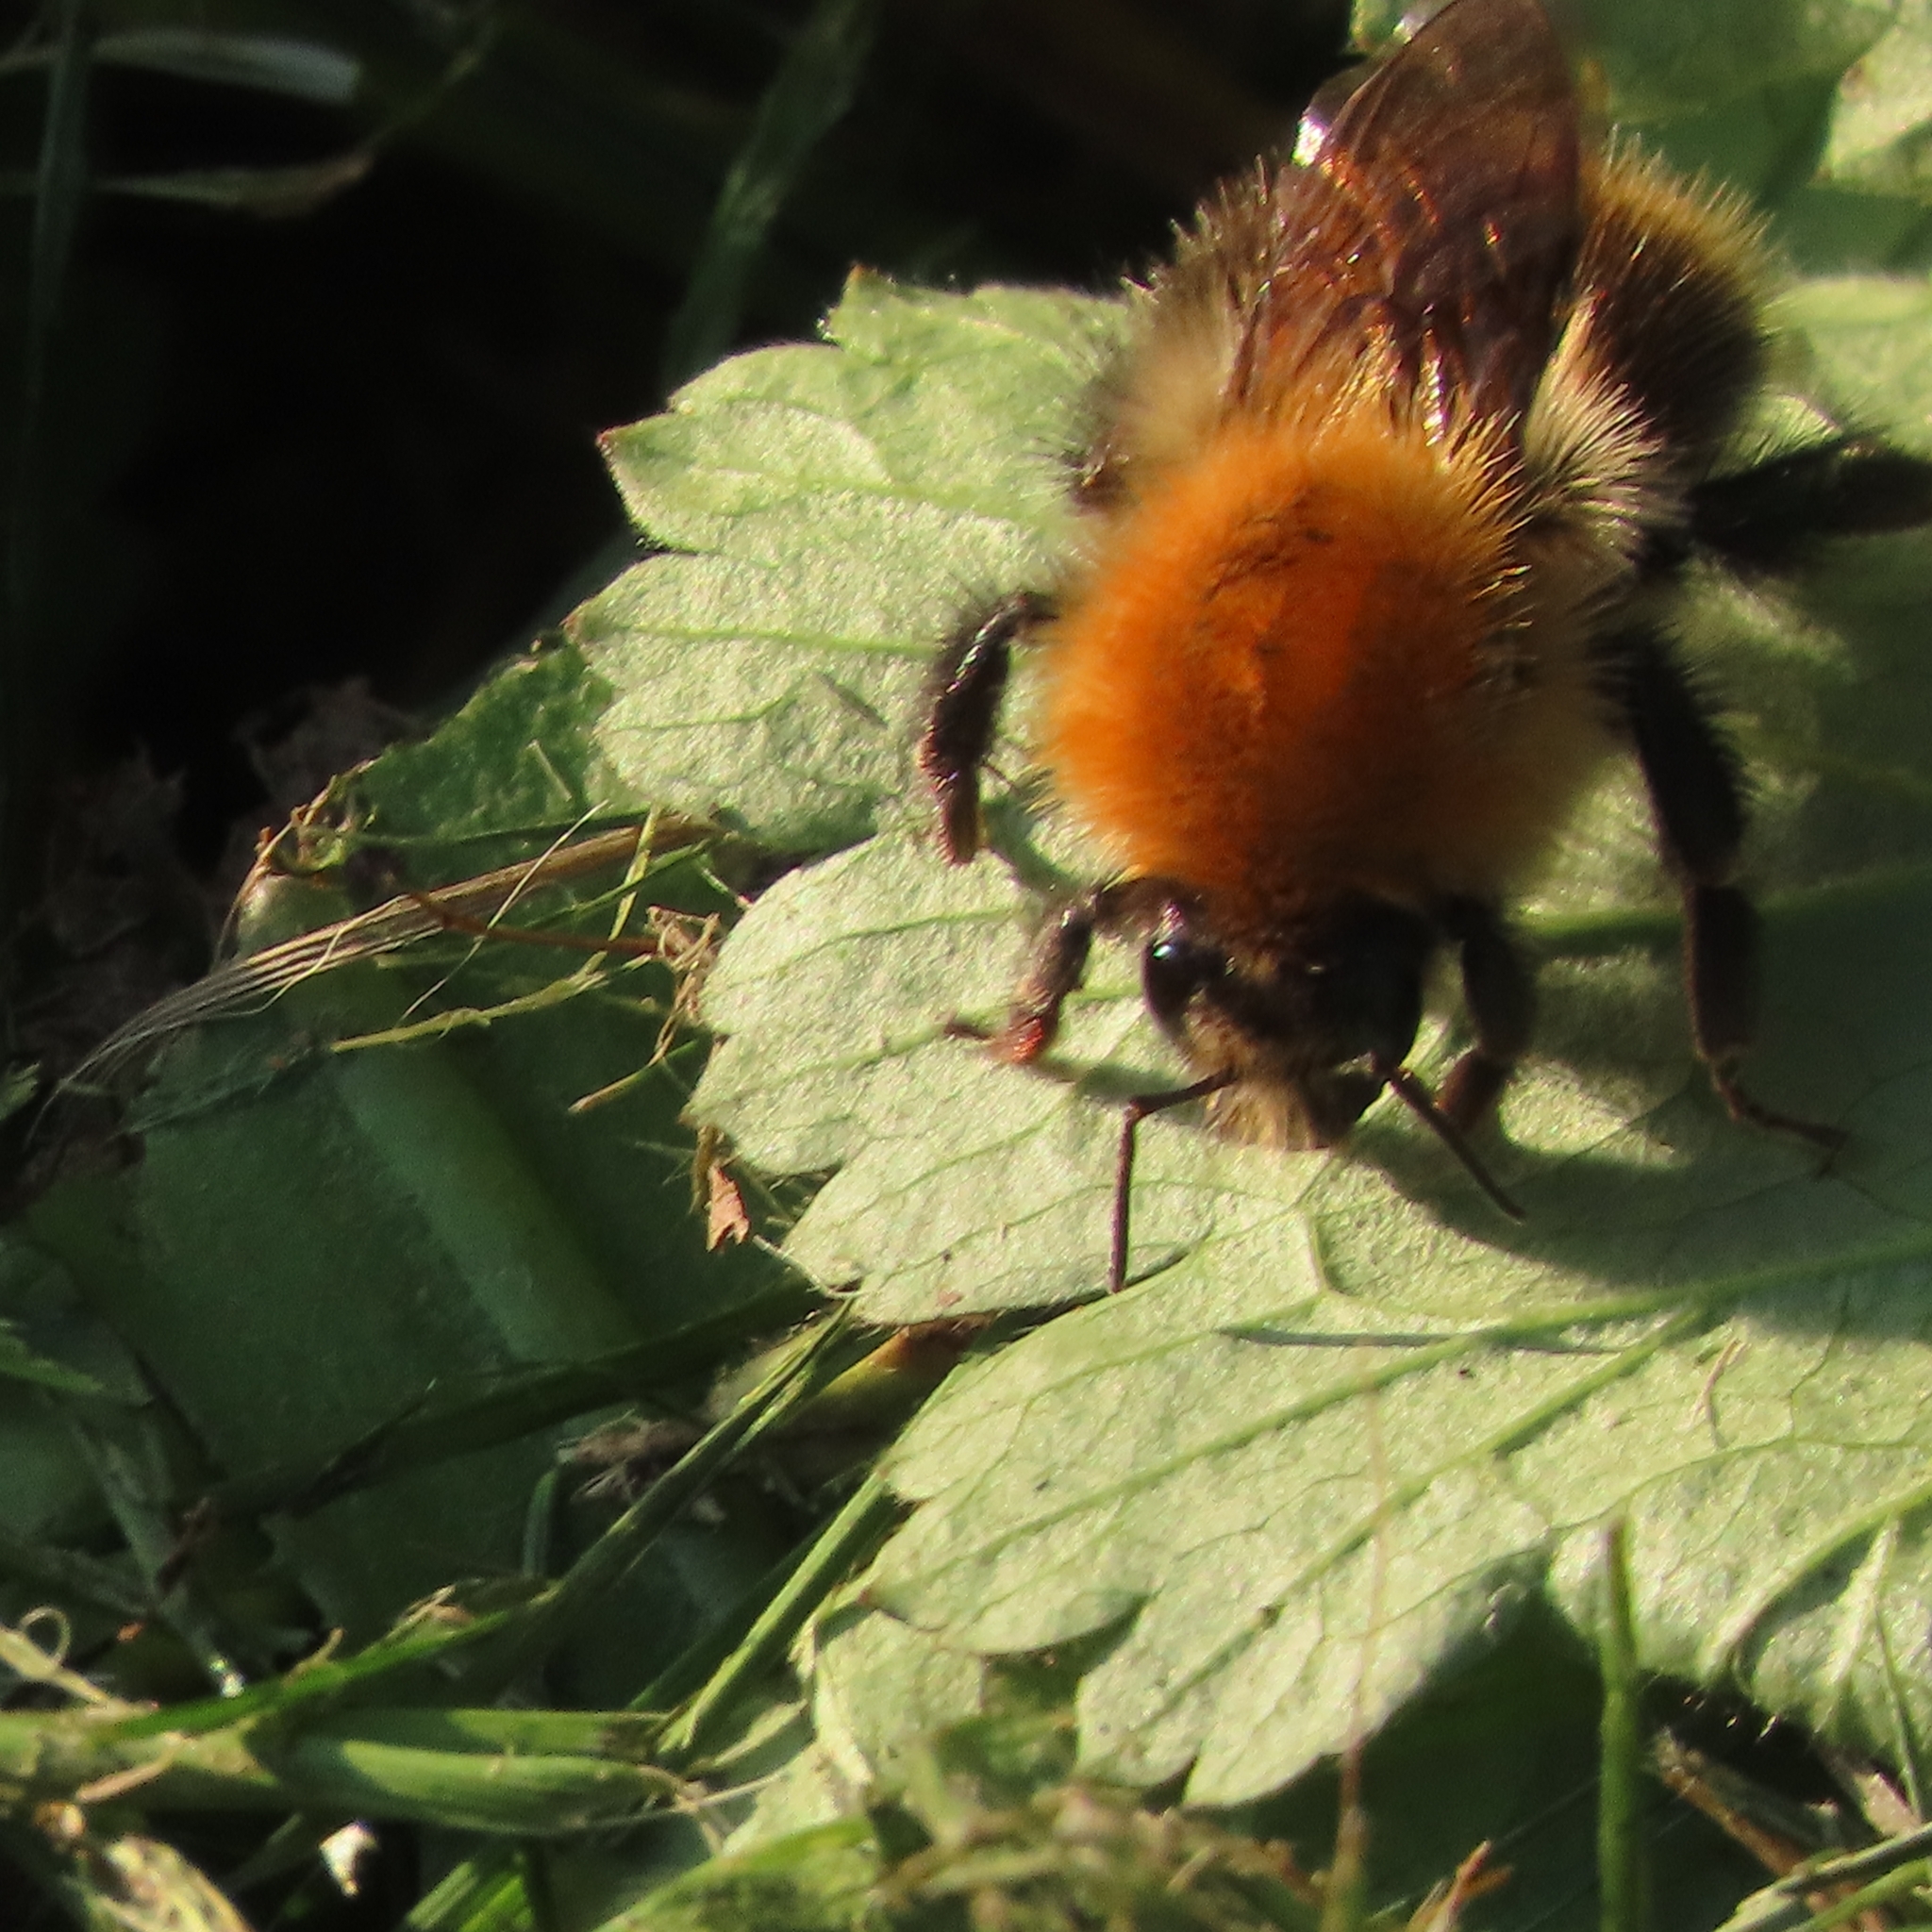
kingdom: Animalia
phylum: Arthropoda
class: Insecta
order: Hymenoptera
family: Apidae
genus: Bombus
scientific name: Bombus pascuorum
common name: Common carder bee
